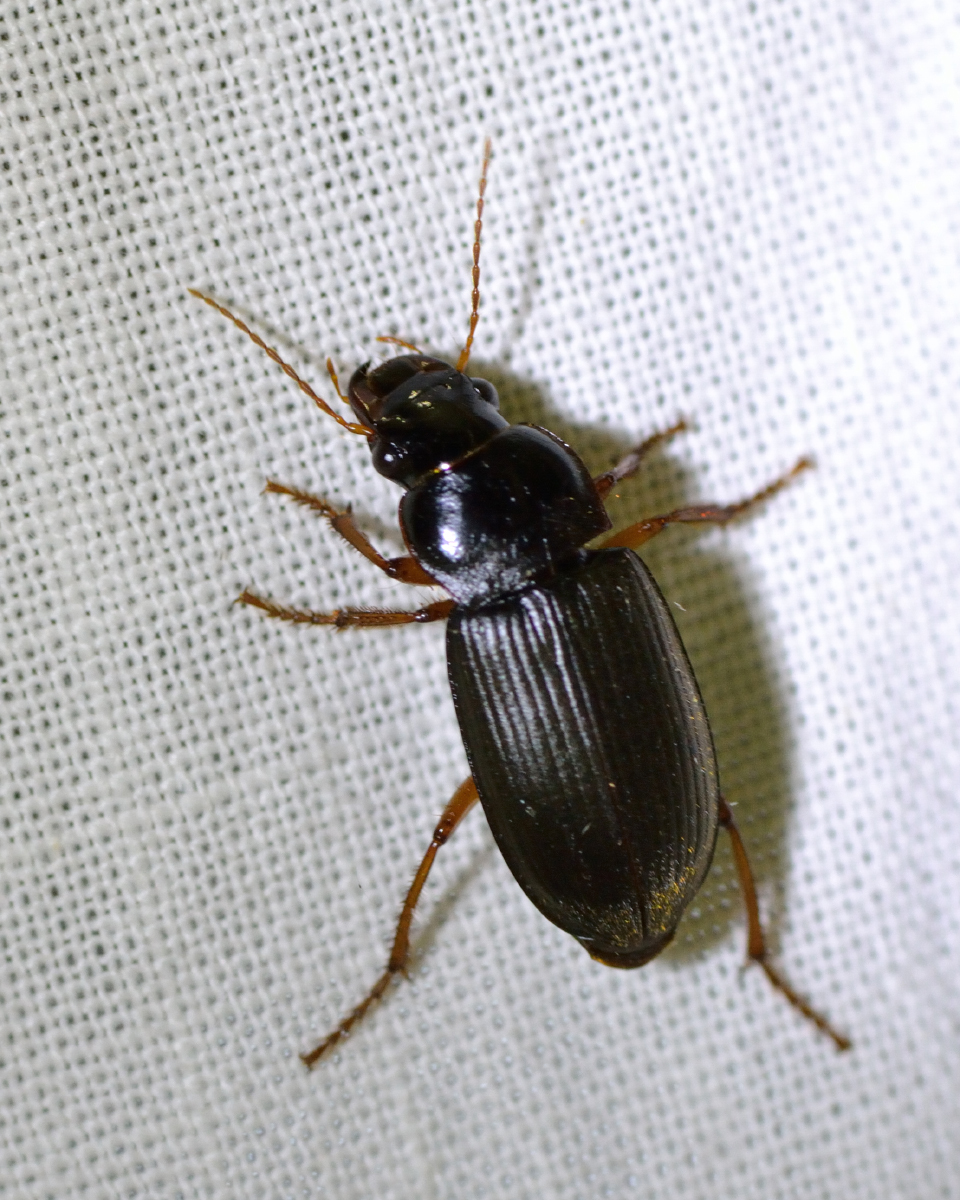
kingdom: Animalia
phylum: Arthropoda
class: Insecta
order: Coleoptera
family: Carabidae
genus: Harpalus
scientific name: Harpalus rufipes
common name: Strawberry harp ground beetle
